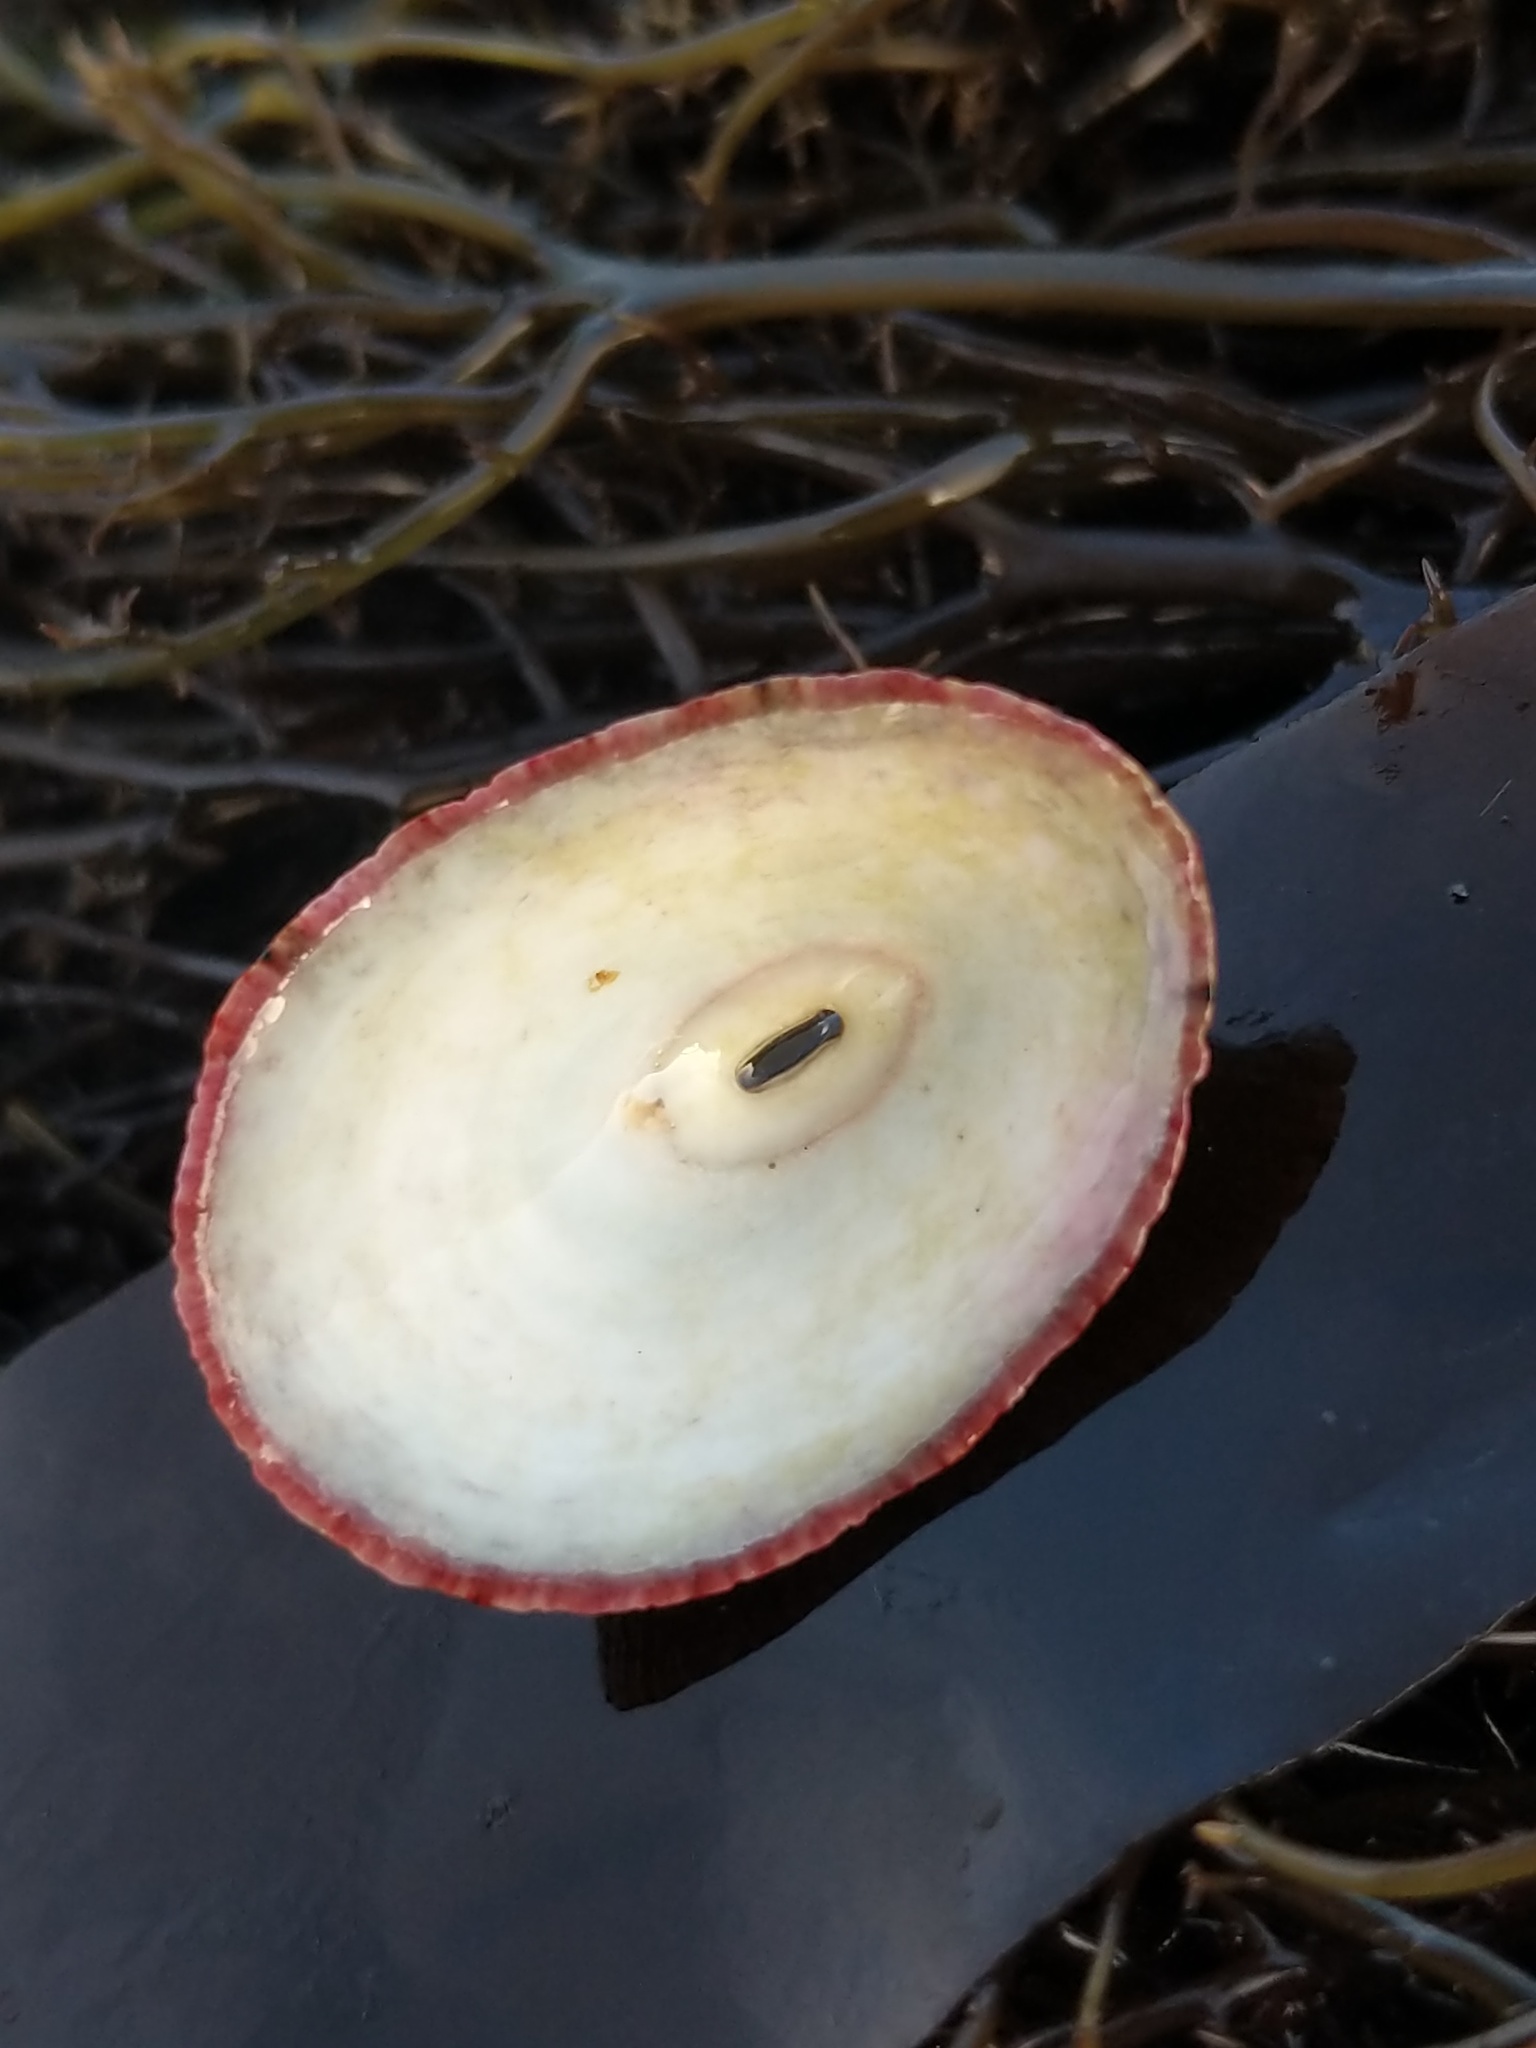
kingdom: Animalia
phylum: Mollusca
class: Gastropoda
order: Lepetellida
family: Fissurellidae
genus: Fissurella
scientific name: Fissurella volcano
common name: Volcano keyhole limpet
